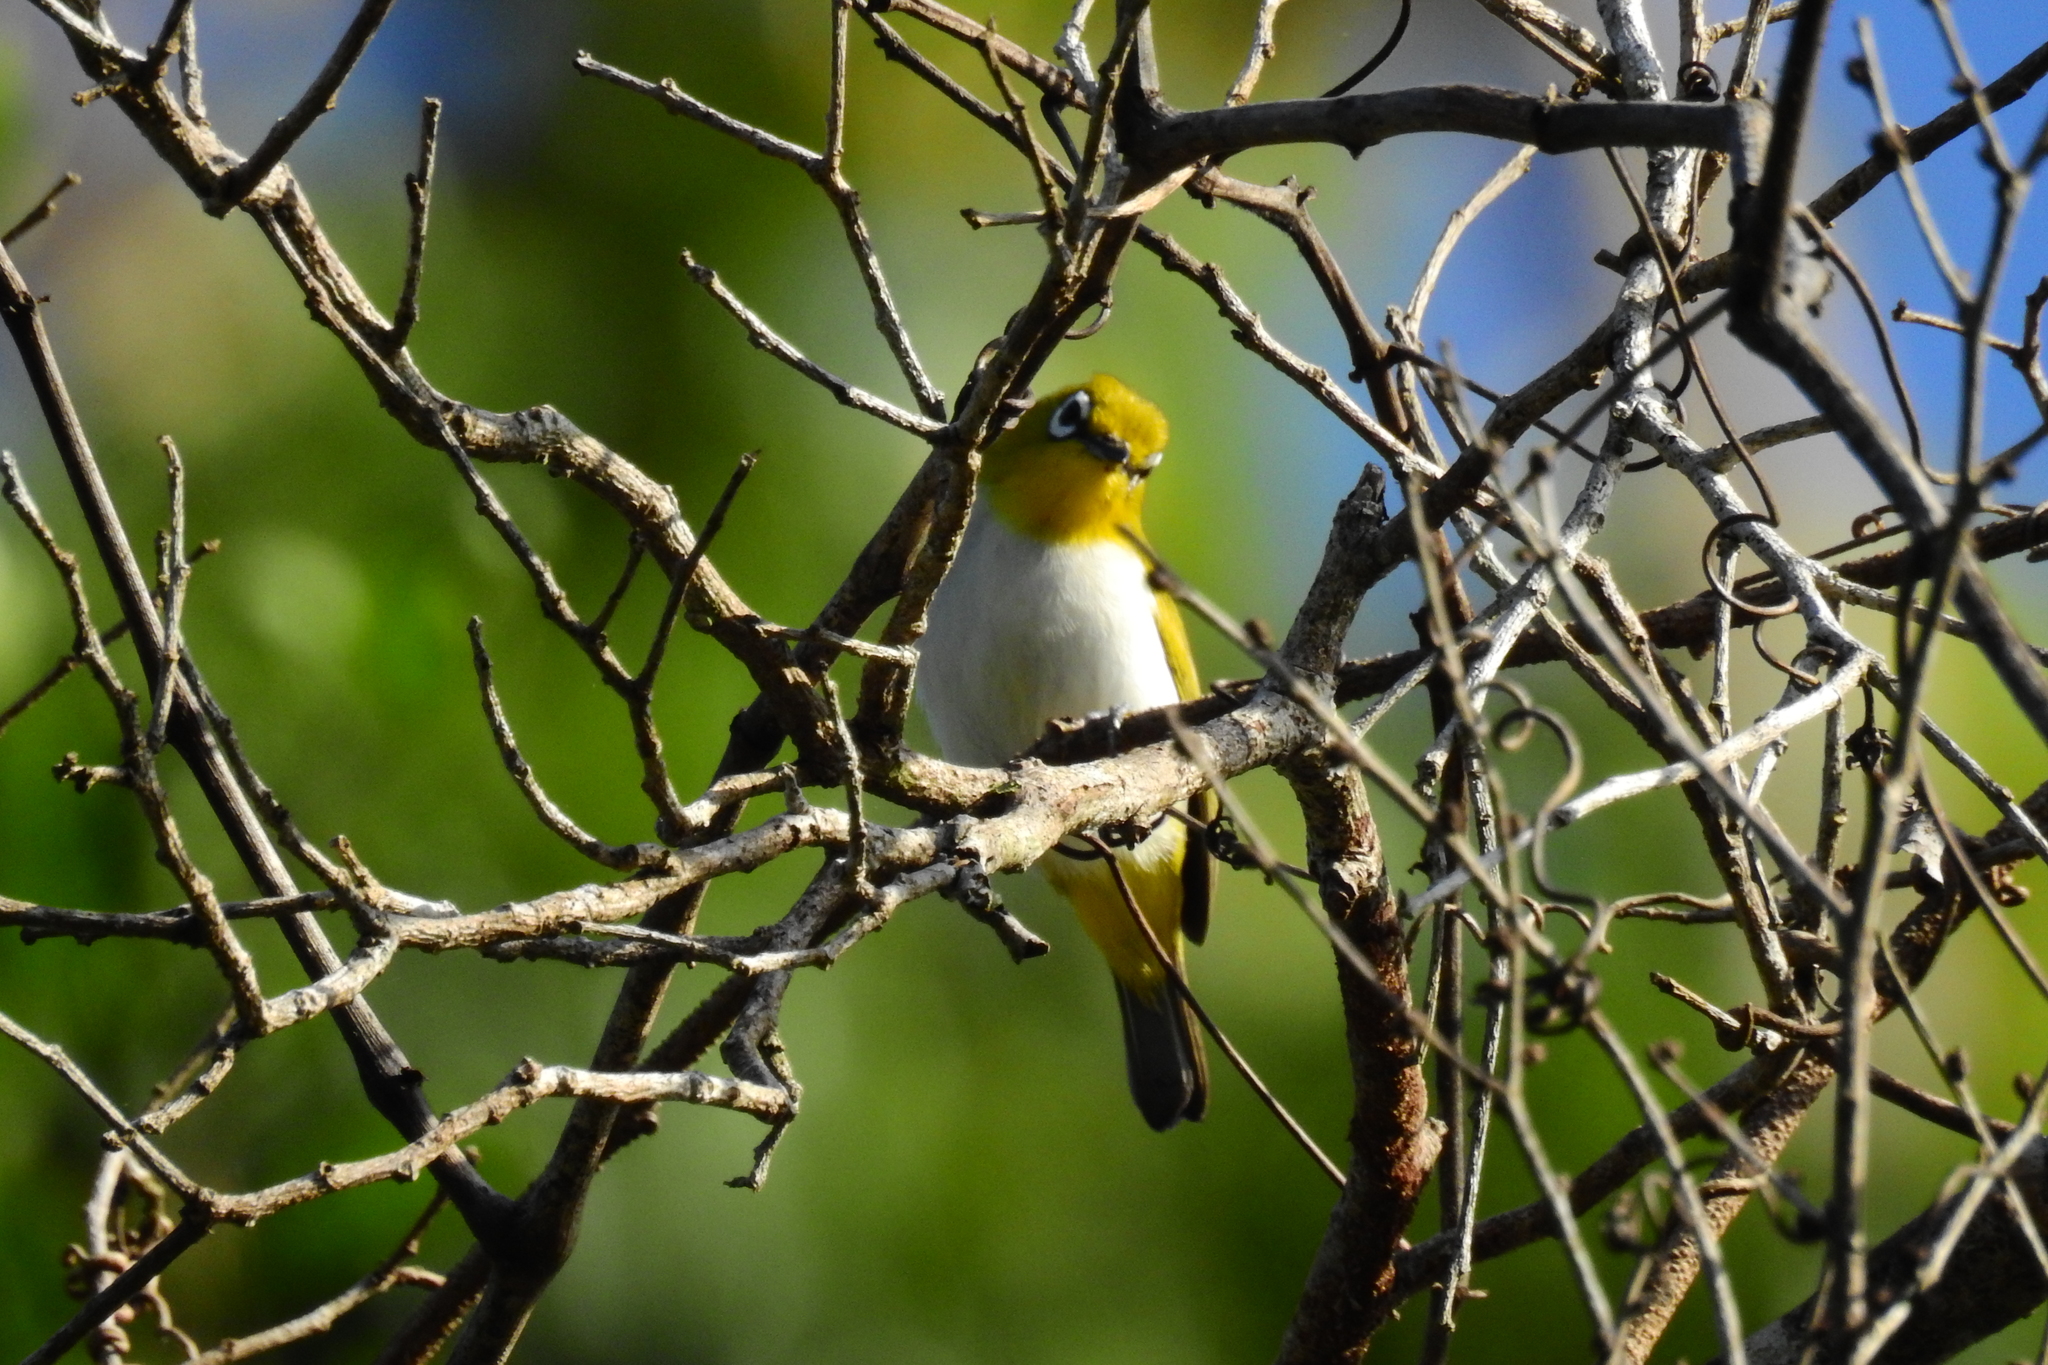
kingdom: Animalia
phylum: Chordata
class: Aves
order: Passeriformes
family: Zosteropidae
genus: Zosterops
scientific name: Zosterops consobrinorum
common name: Pale-bellied white-eye
